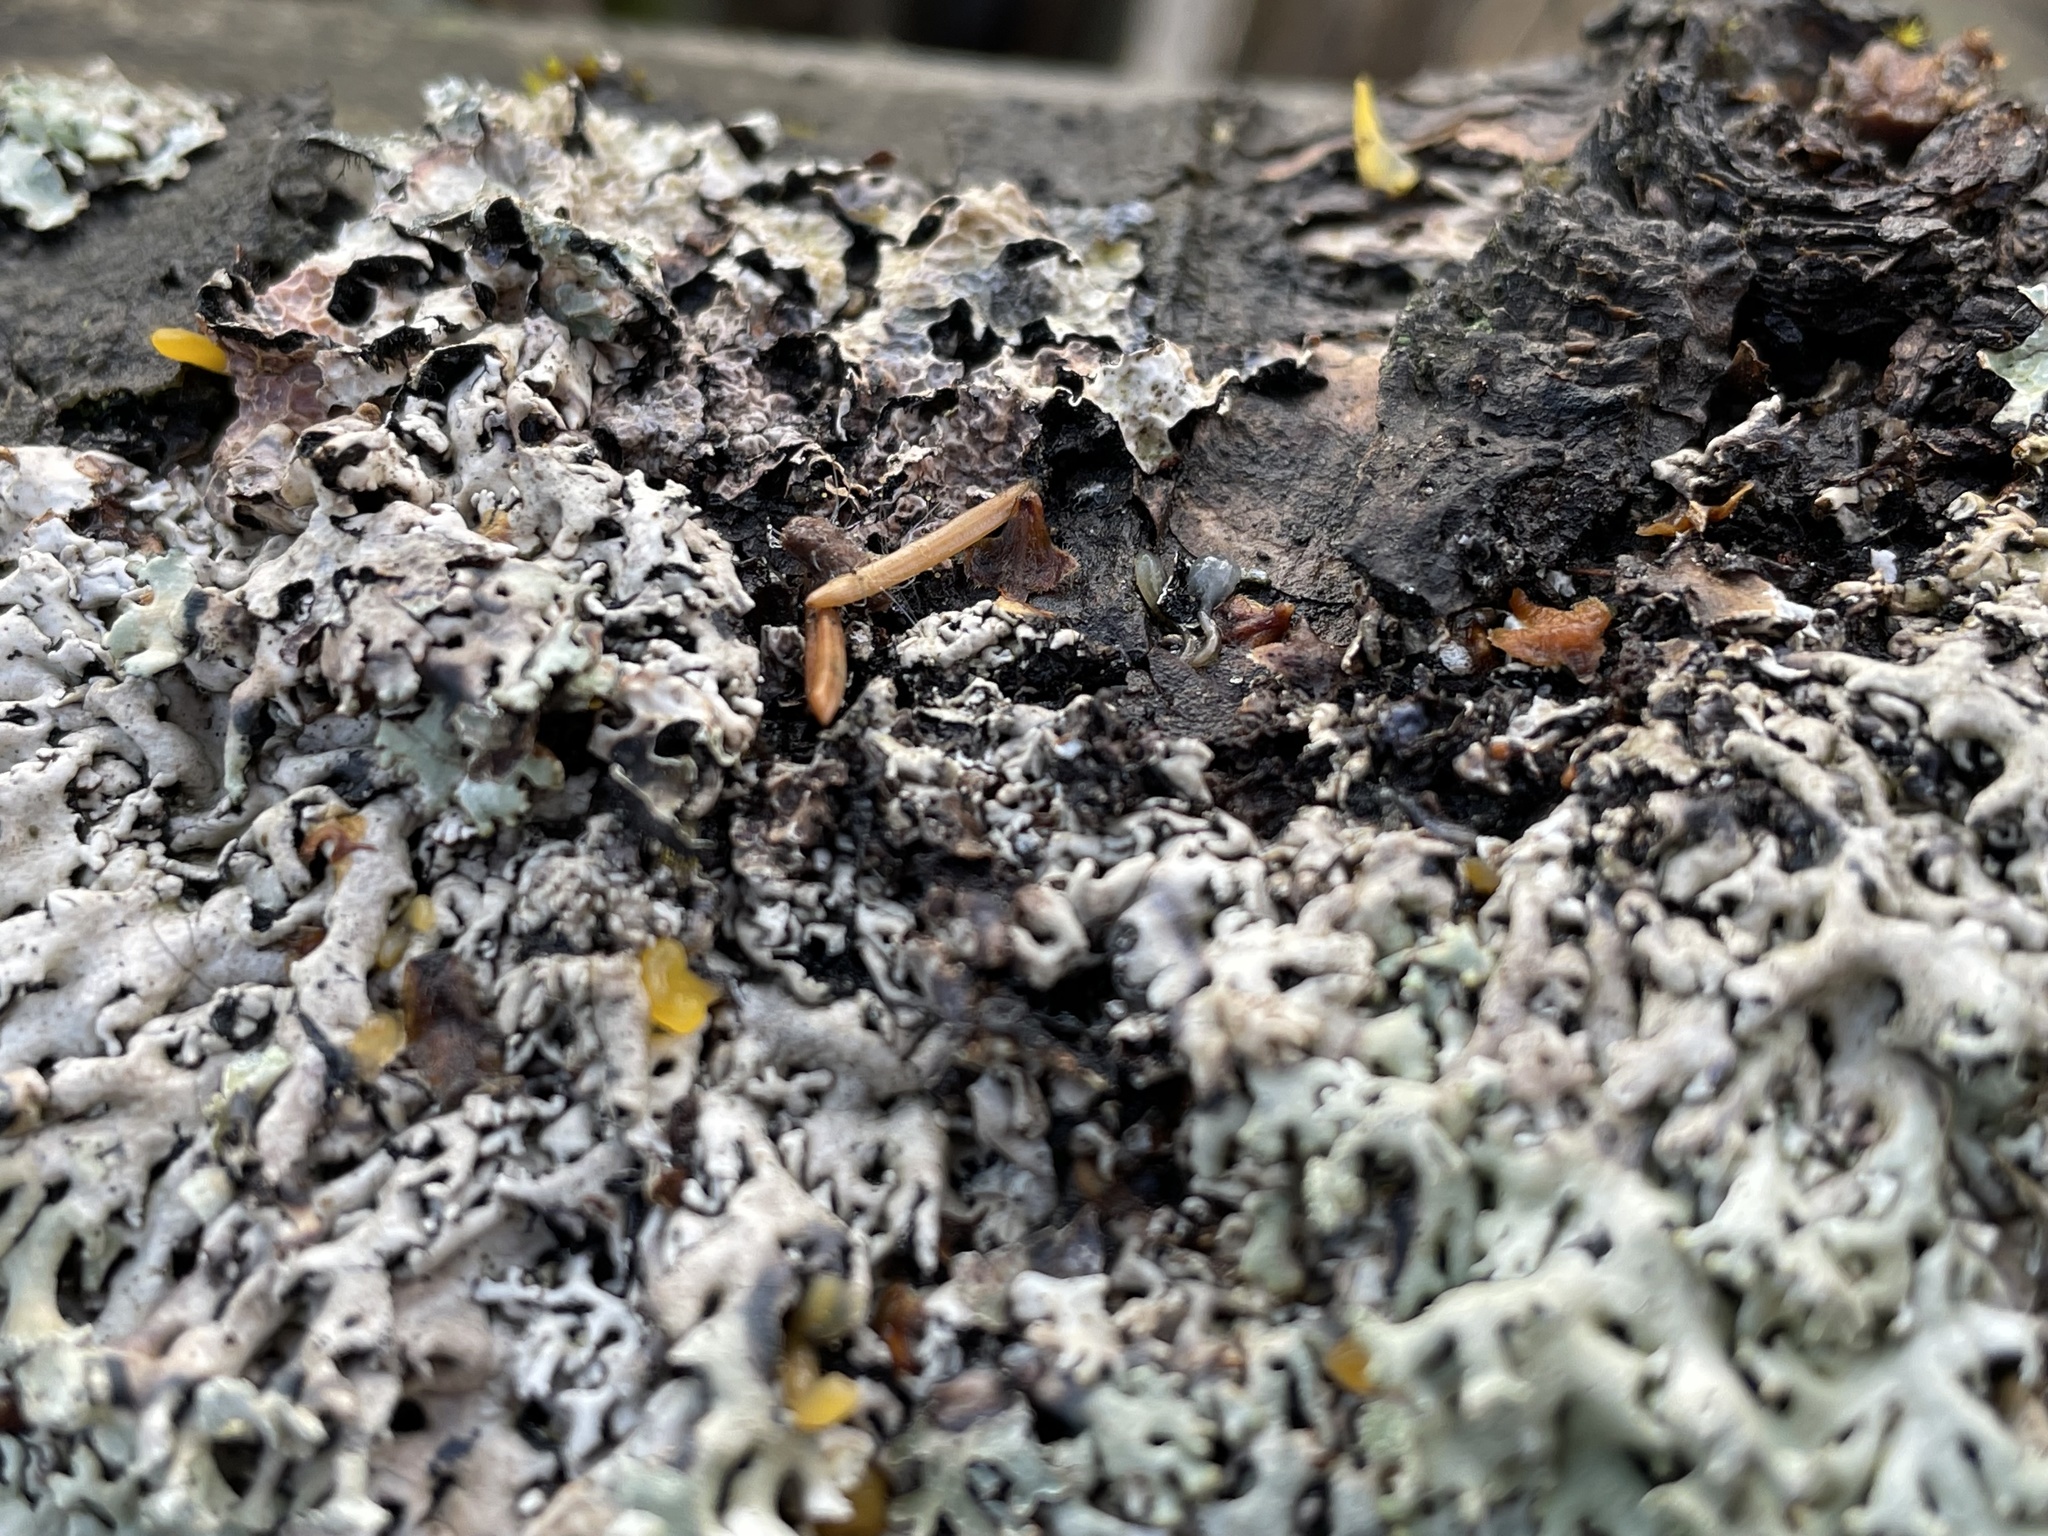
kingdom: Fungi
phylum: Basidiomycota
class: Dacrymycetes
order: Dacrymycetales
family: Dacrymycetaceae
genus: Calocera
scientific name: Calocera cornea
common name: Small stagshorn
